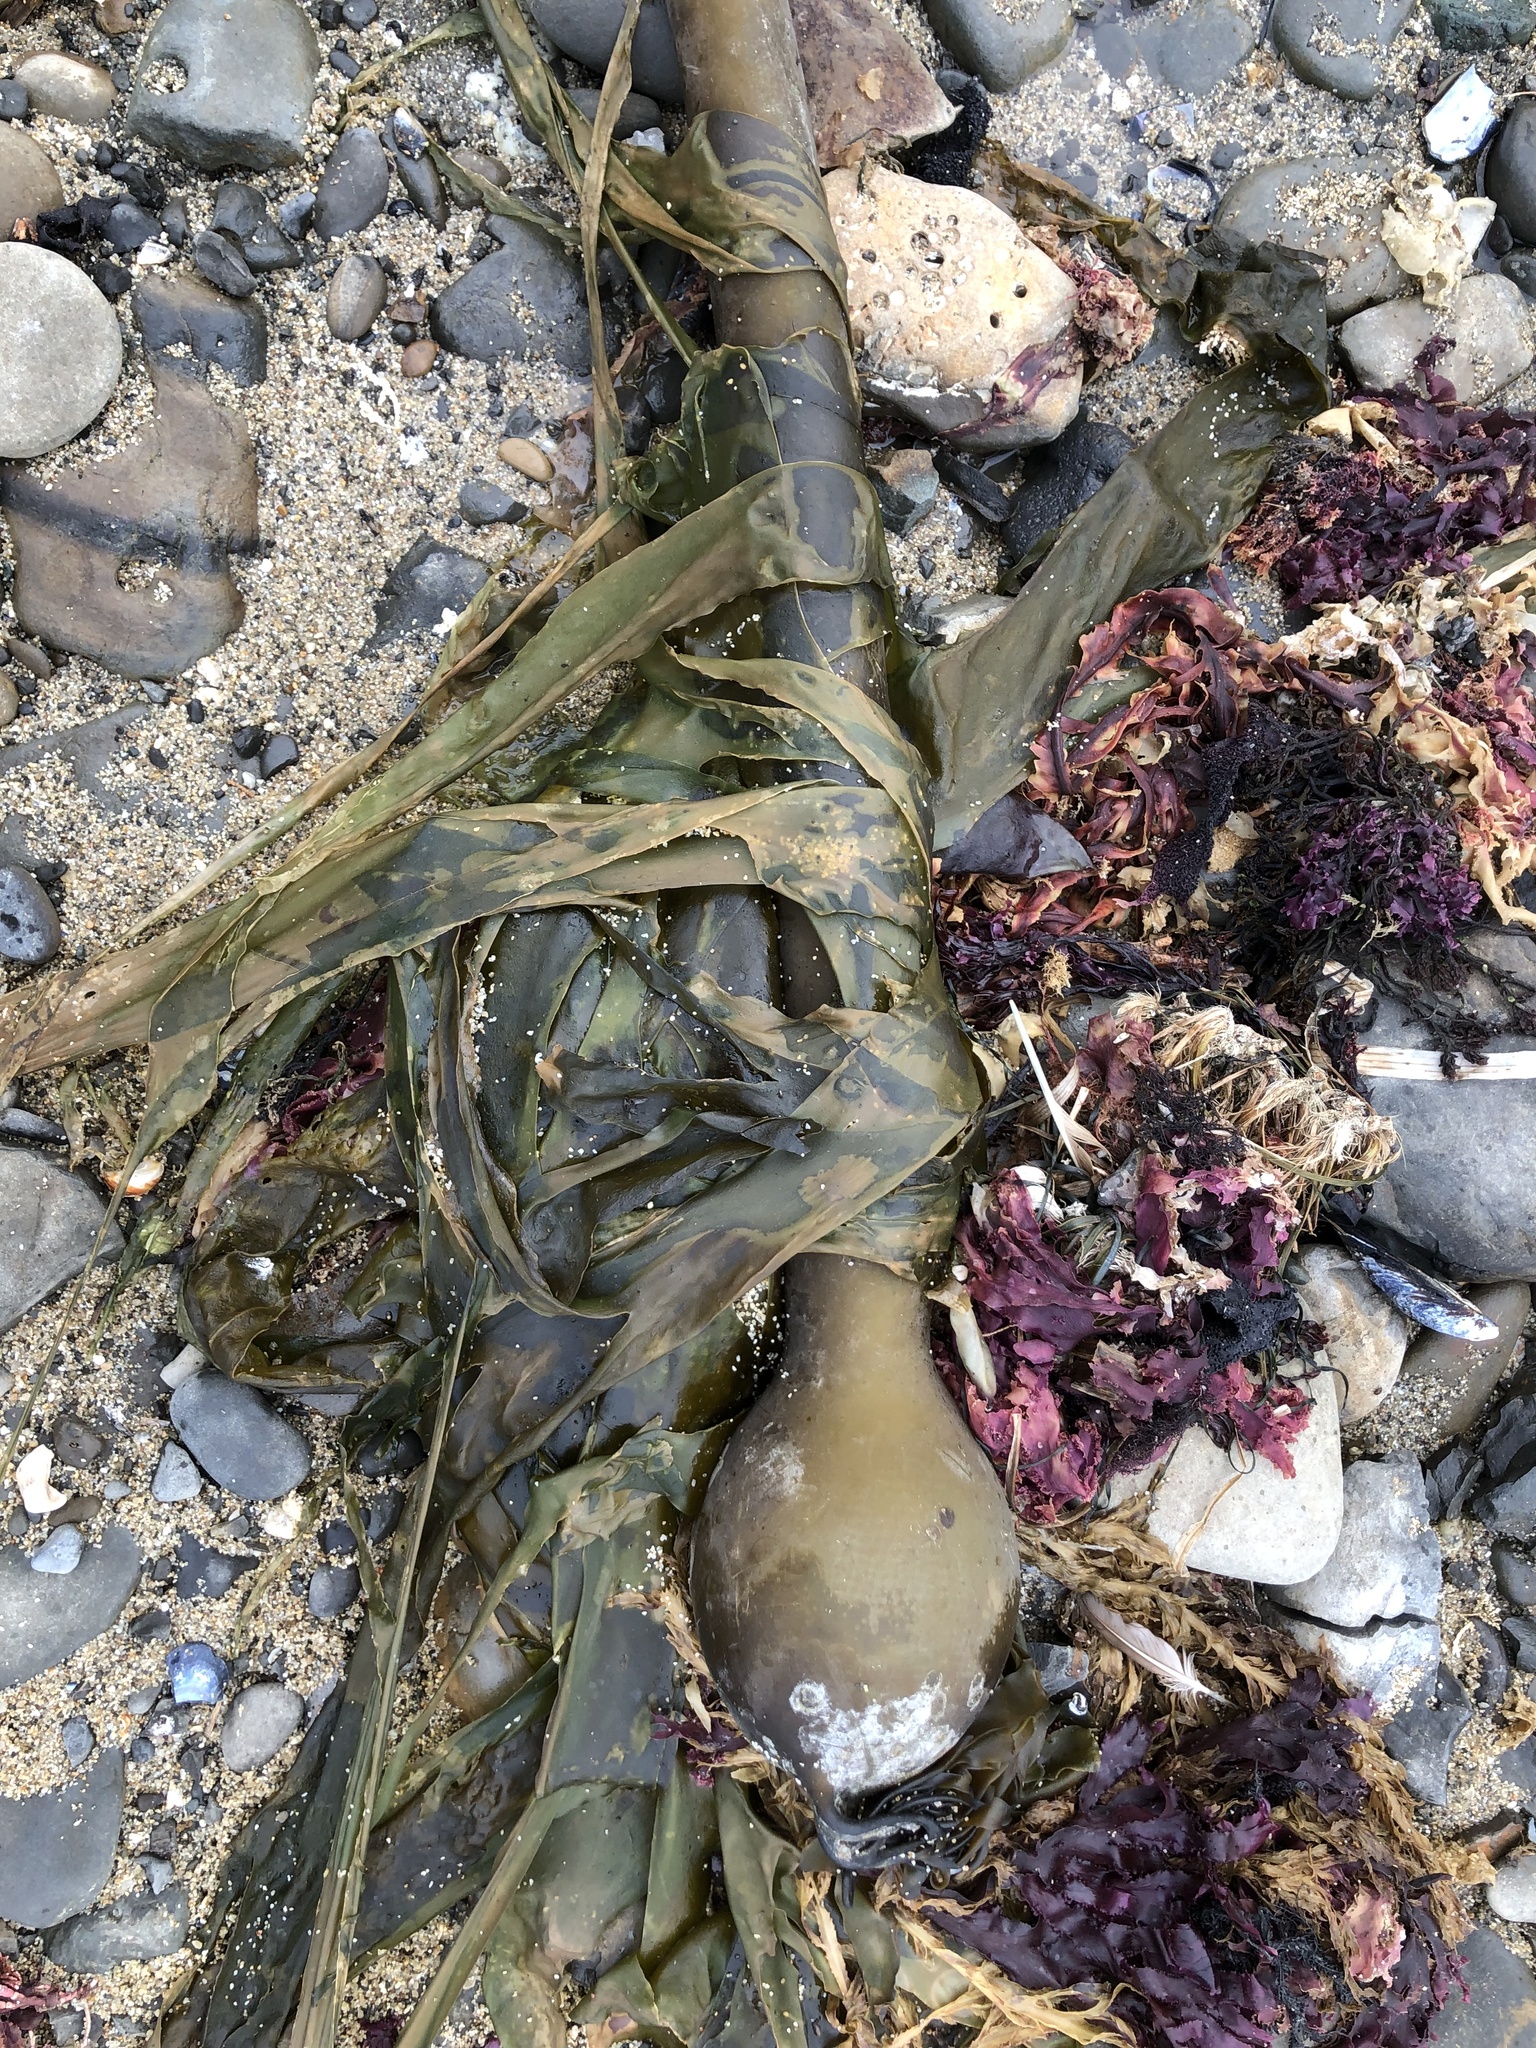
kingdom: Chromista
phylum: Ochrophyta
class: Phaeophyceae
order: Laminariales
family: Laminariaceae
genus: Nereocystis
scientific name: Nereocystis luetkeana
